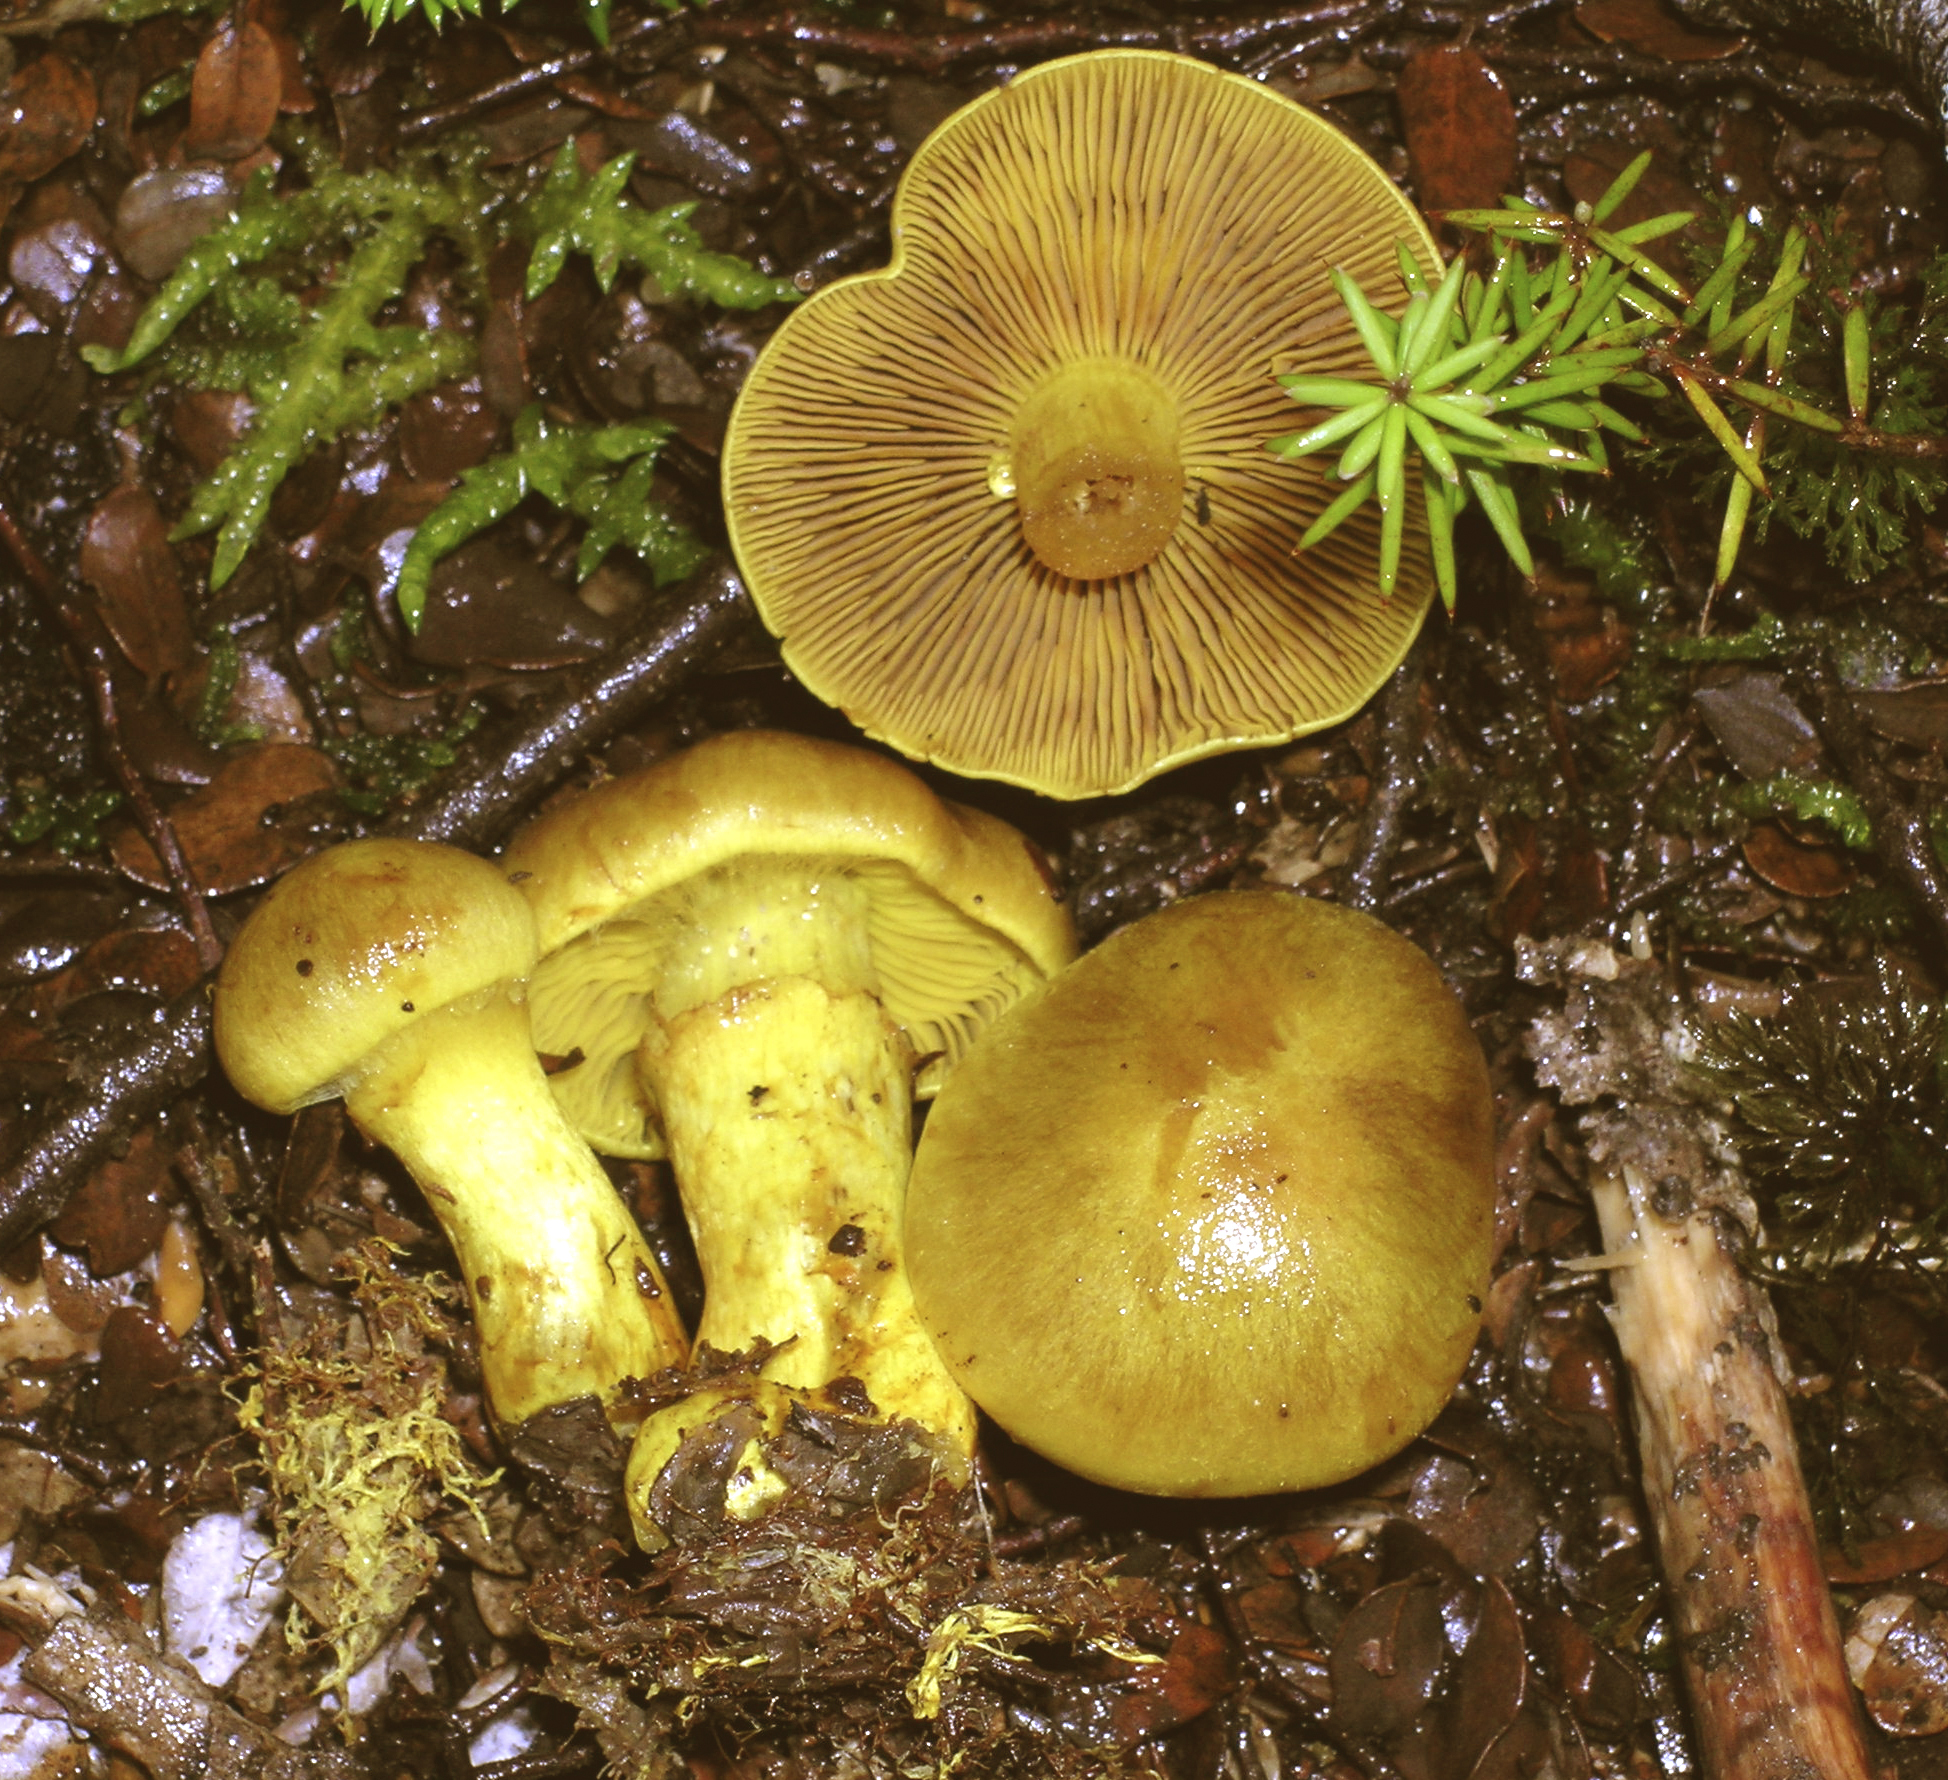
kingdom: Fungi
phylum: Basidiomycota
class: Agaricomycetes
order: Agaricales
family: Cortinariaceae
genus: Cortinarius
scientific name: Cortinarius canarius
